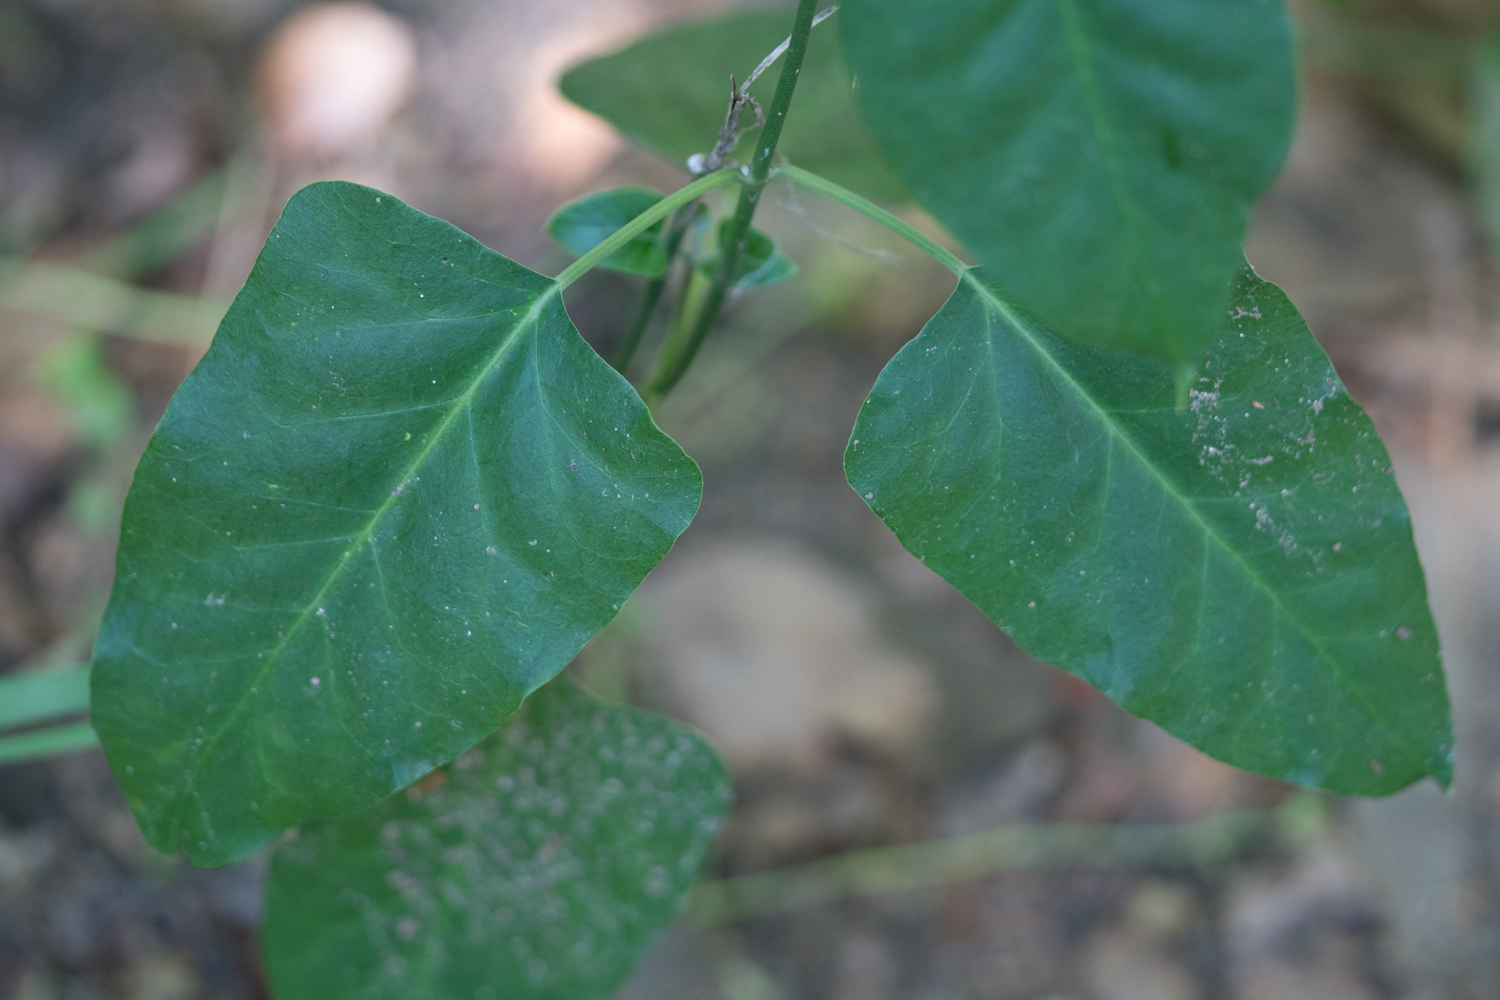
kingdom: Plantae
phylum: Tracheophyta
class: Magnoliopsida
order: Gentianales
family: Apocynaceae
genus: Araujia
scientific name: Araujia sericifera
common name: White bladderflower
